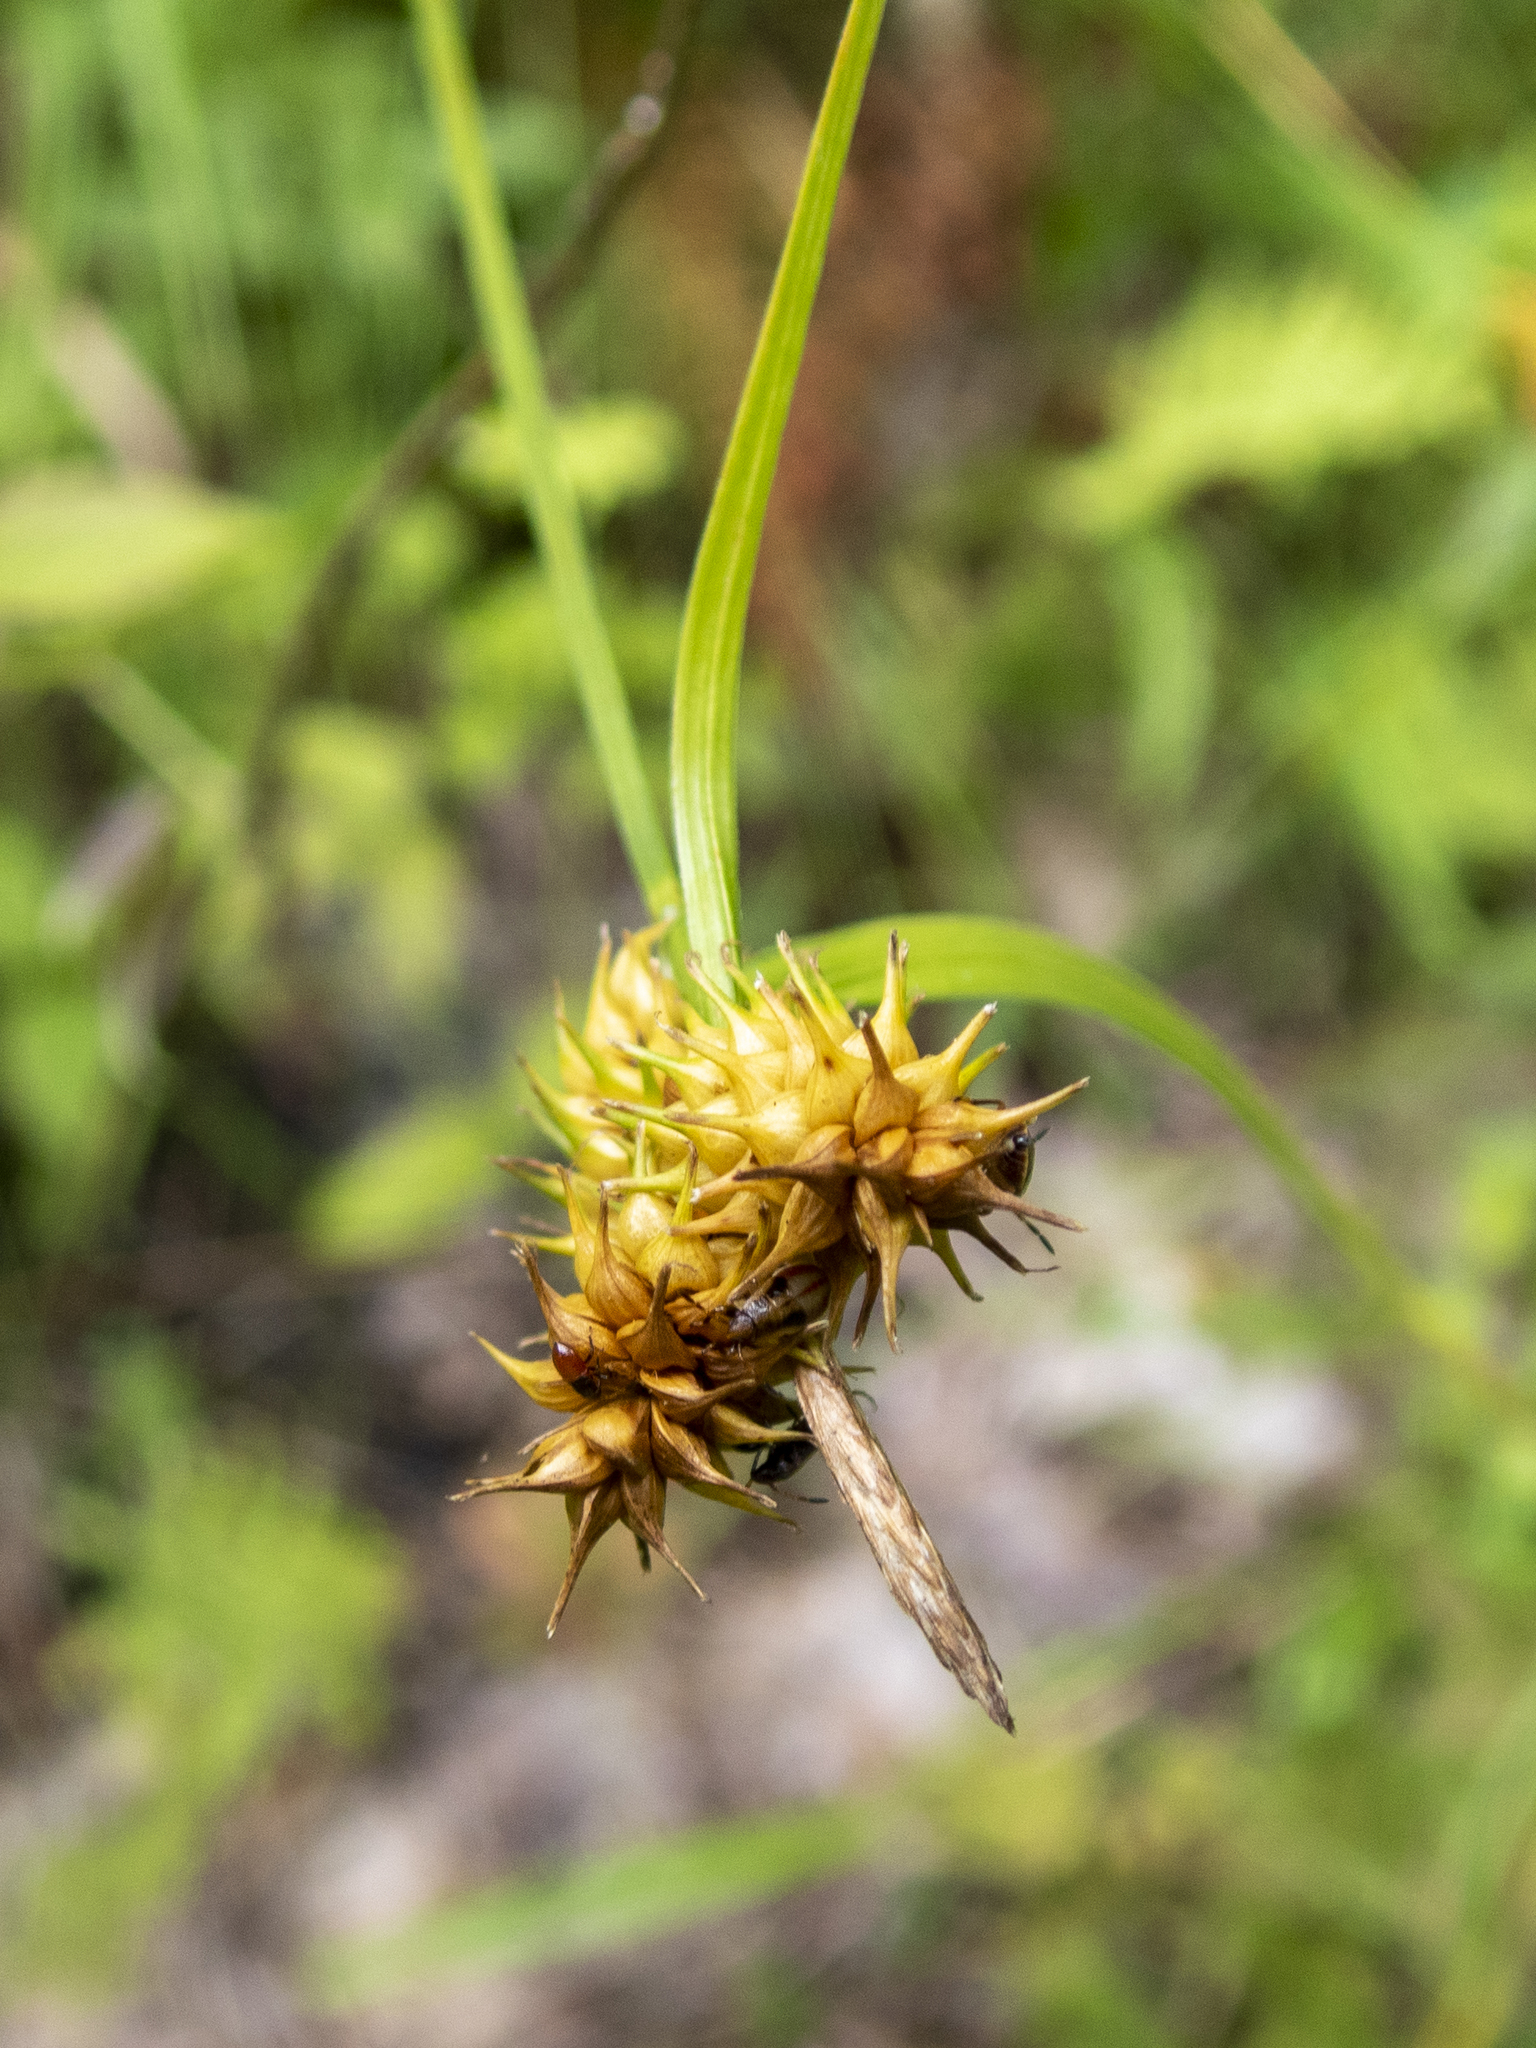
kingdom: Plantae
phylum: Tracheophyta
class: Liliopsida
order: Poales
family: Cyperaceae
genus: Carex
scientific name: Carex flava
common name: Large yellow-sedge
